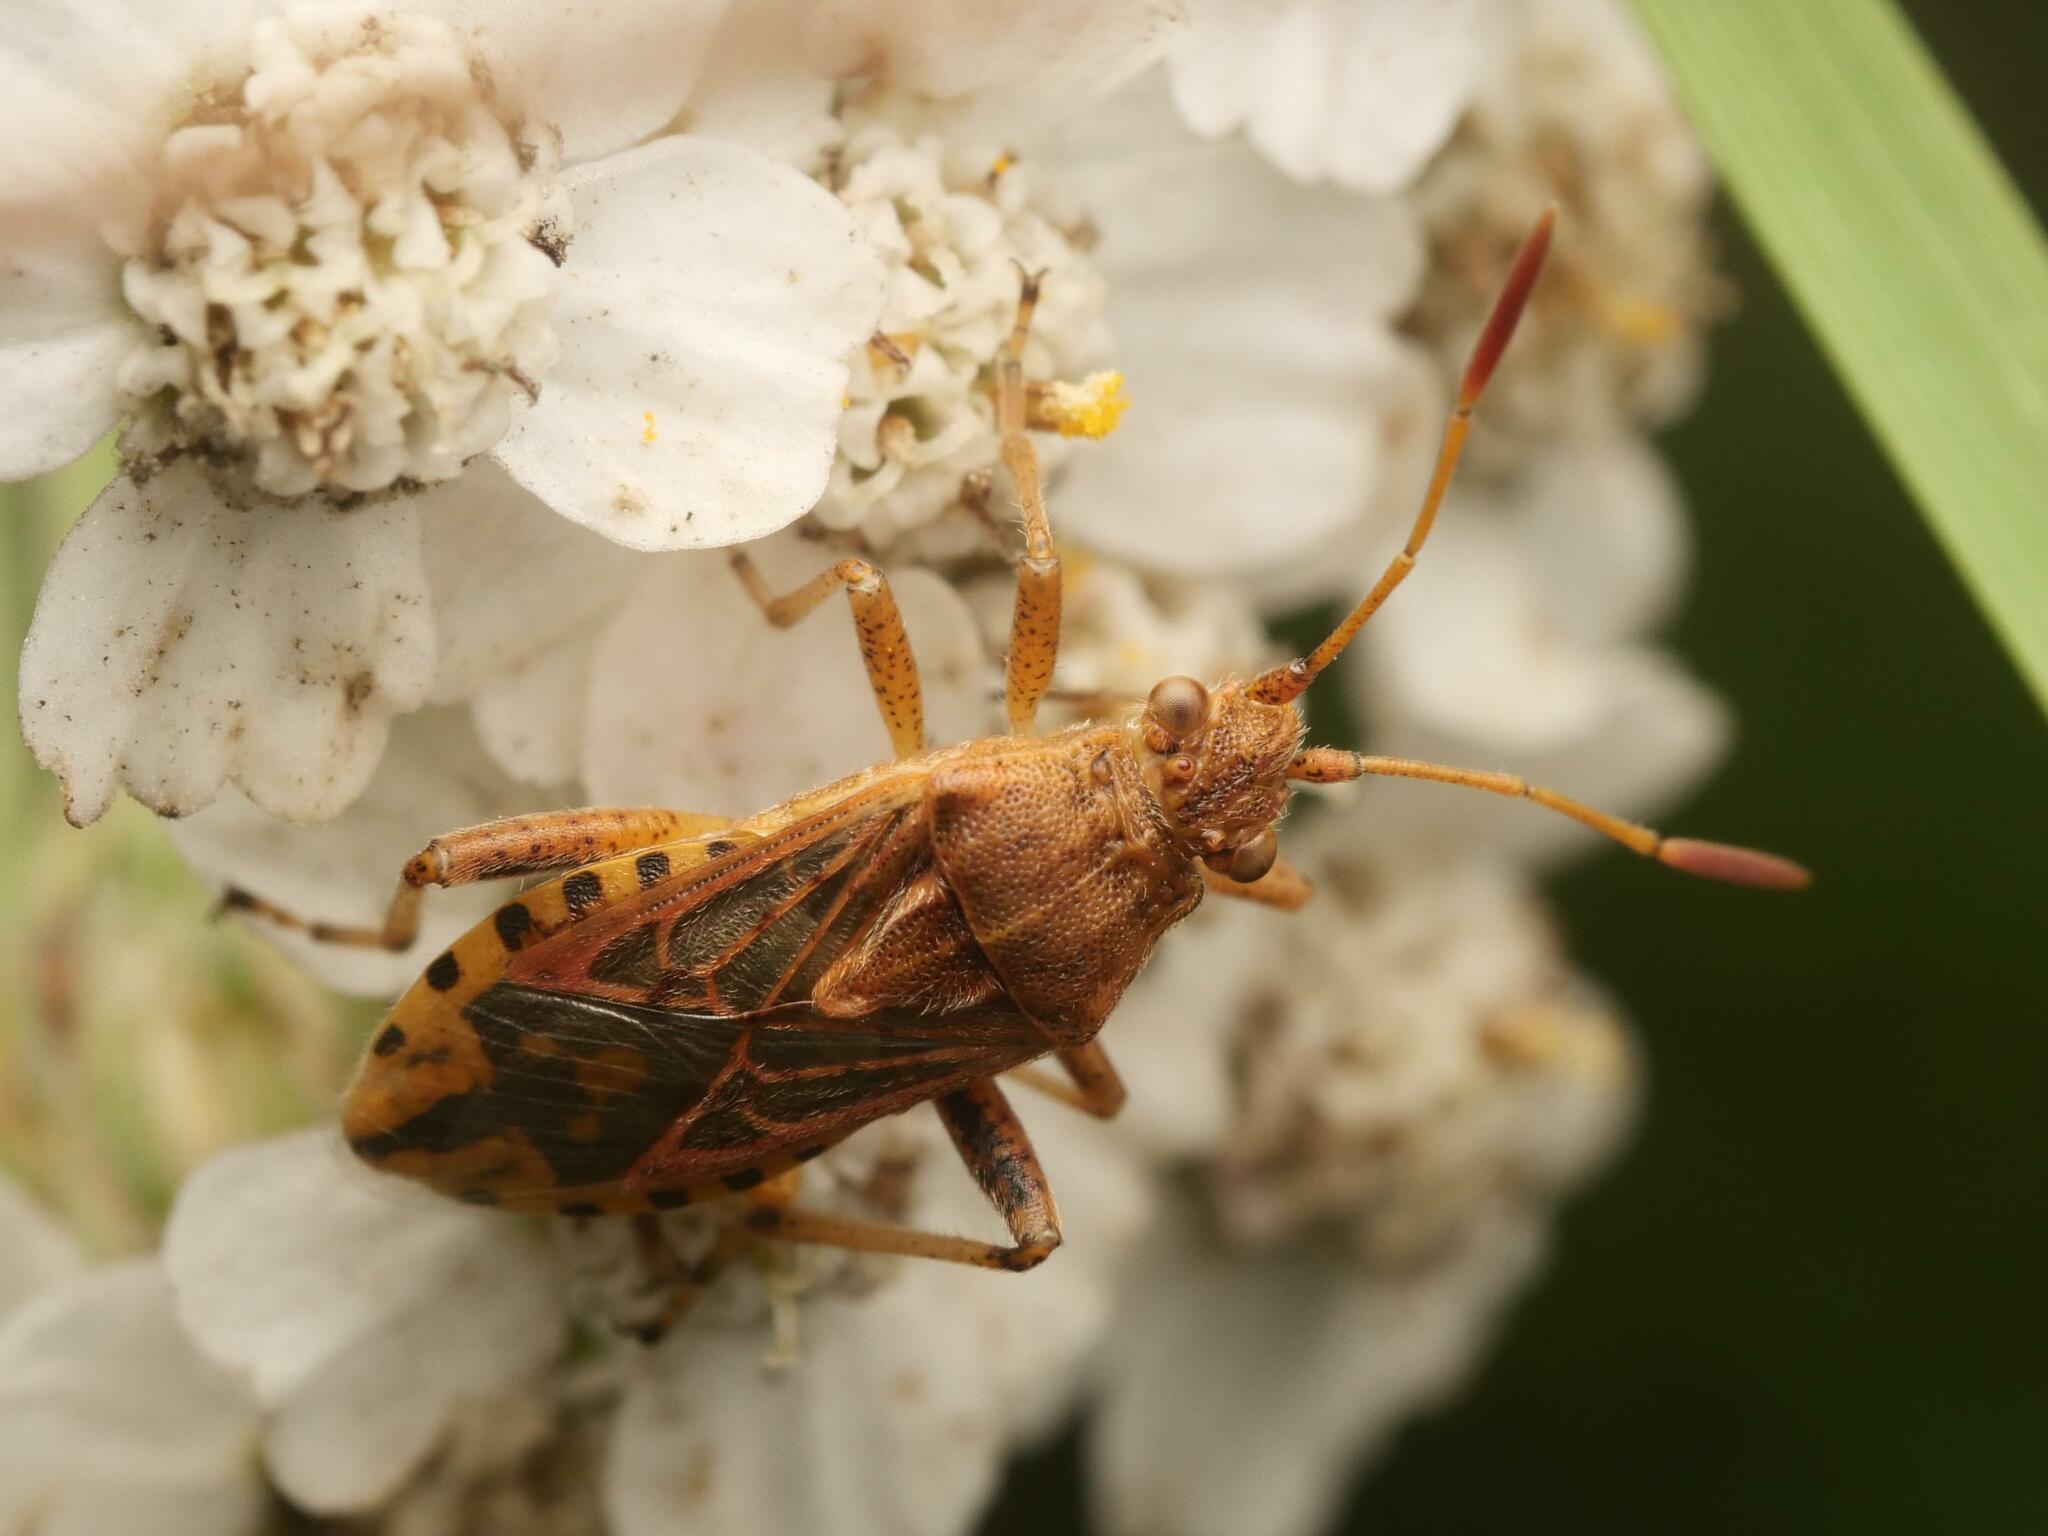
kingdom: Animalia
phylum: Arthropoda
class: Insecta
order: Hemiptera
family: Rhopalidae
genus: Stictopleurus
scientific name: Stictopleurus abutilon
